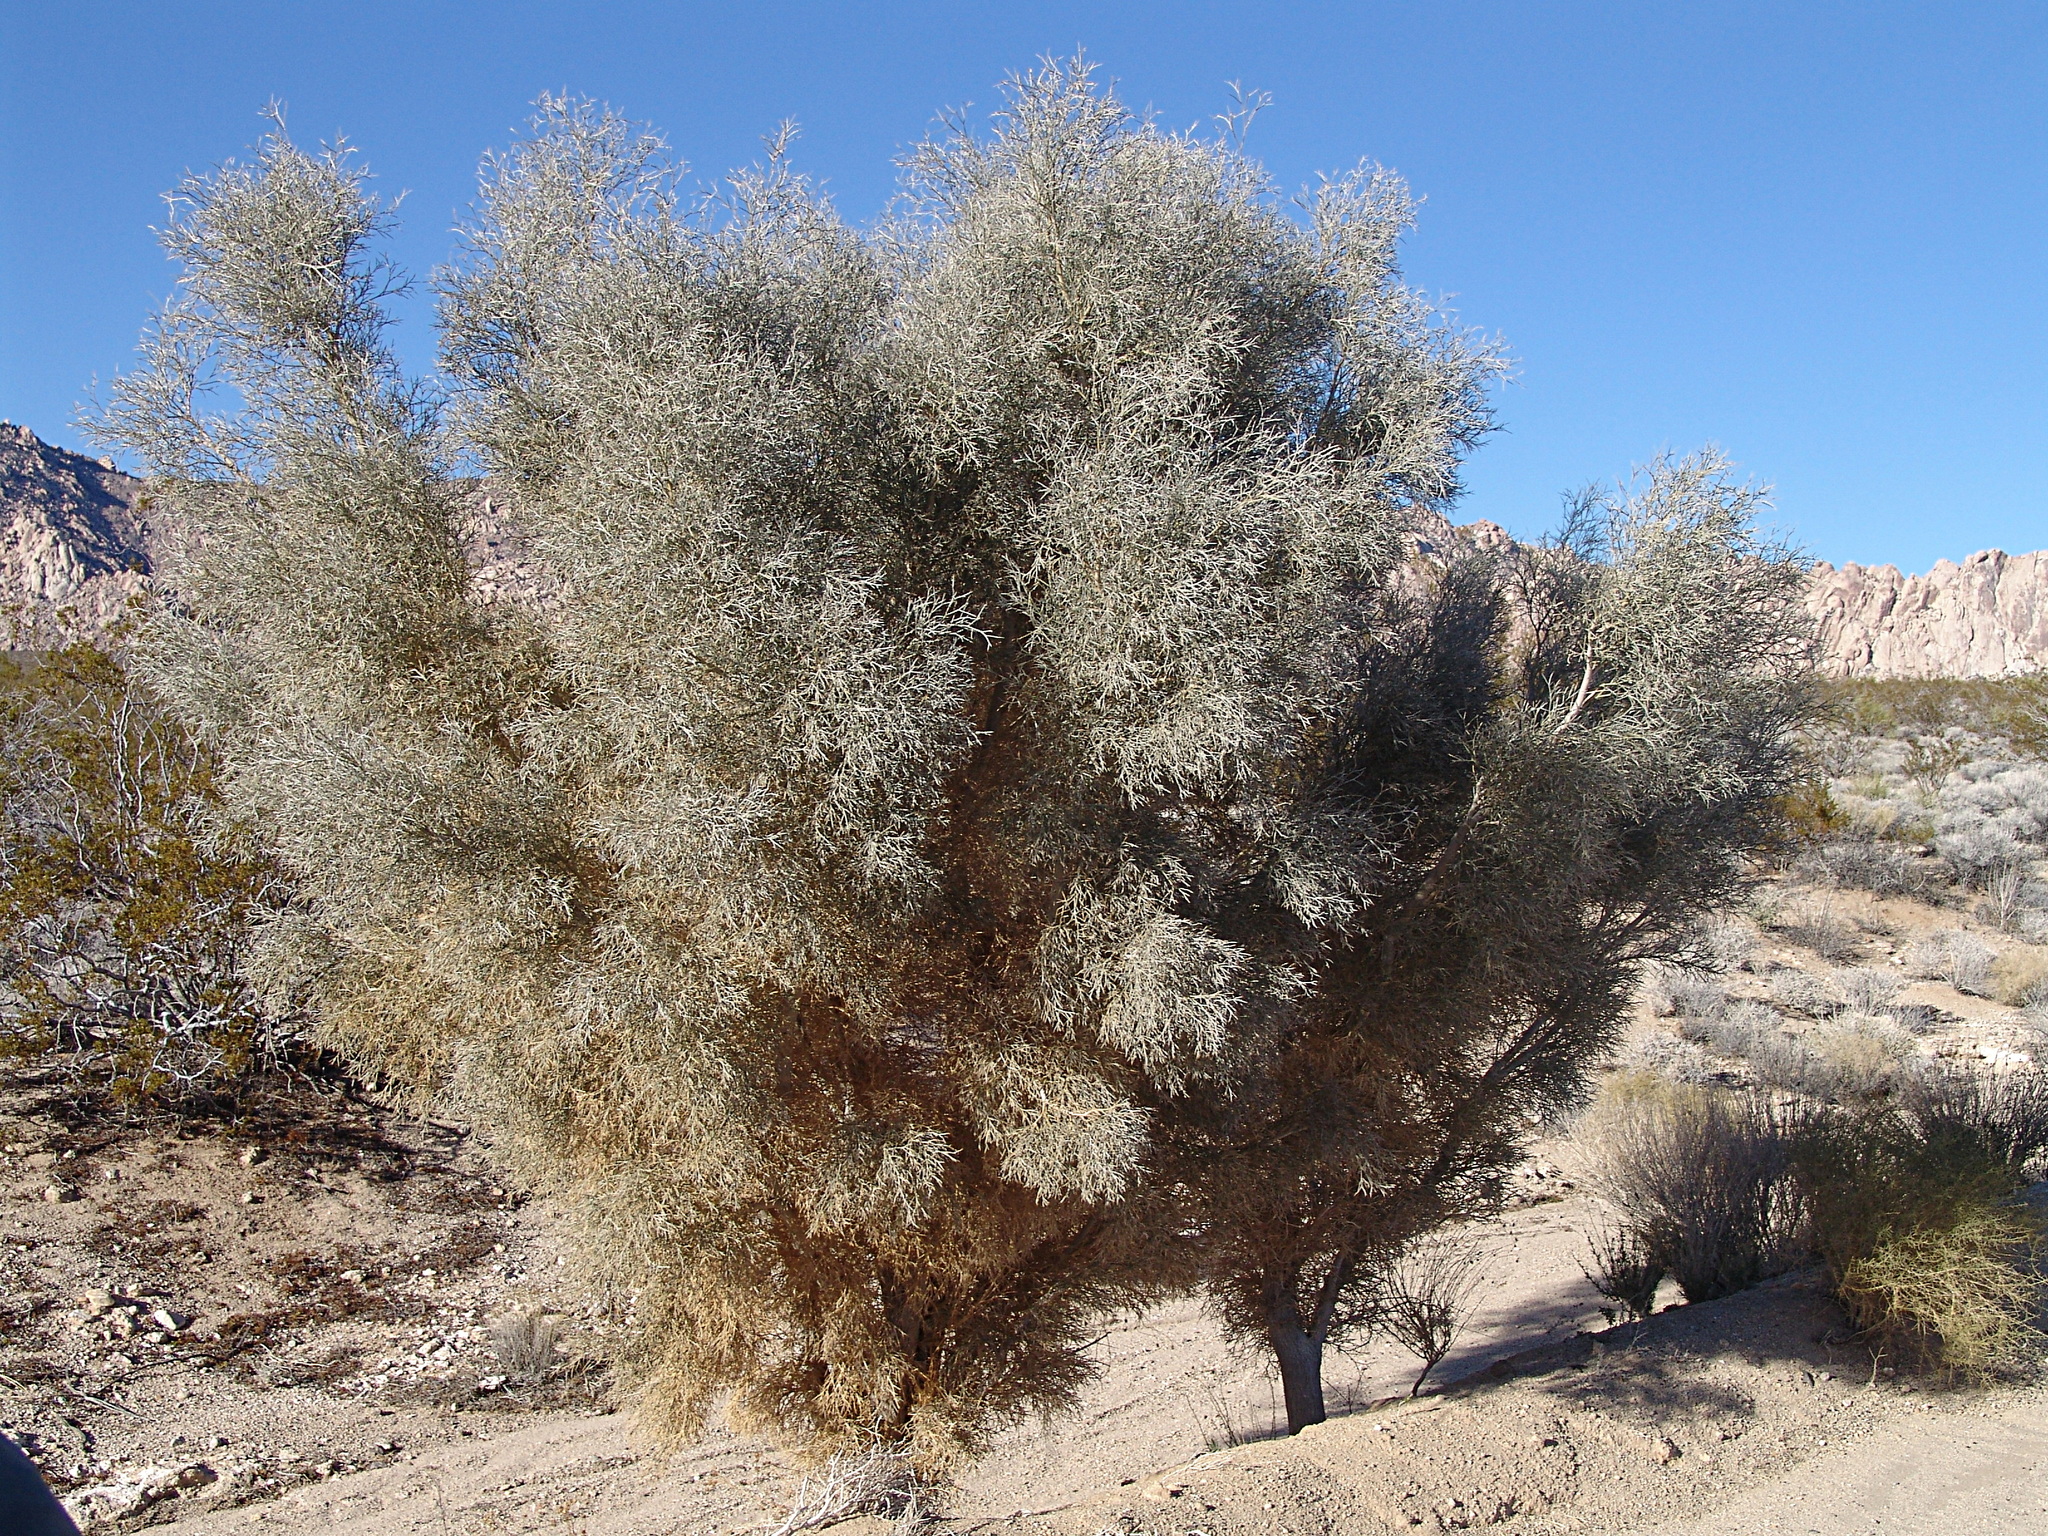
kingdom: Plantae
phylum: Tracheophyta
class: Magnoliopsida
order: Fabales
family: Fabaceae
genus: Psorothamnus
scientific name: Psorothamnus spinosus
